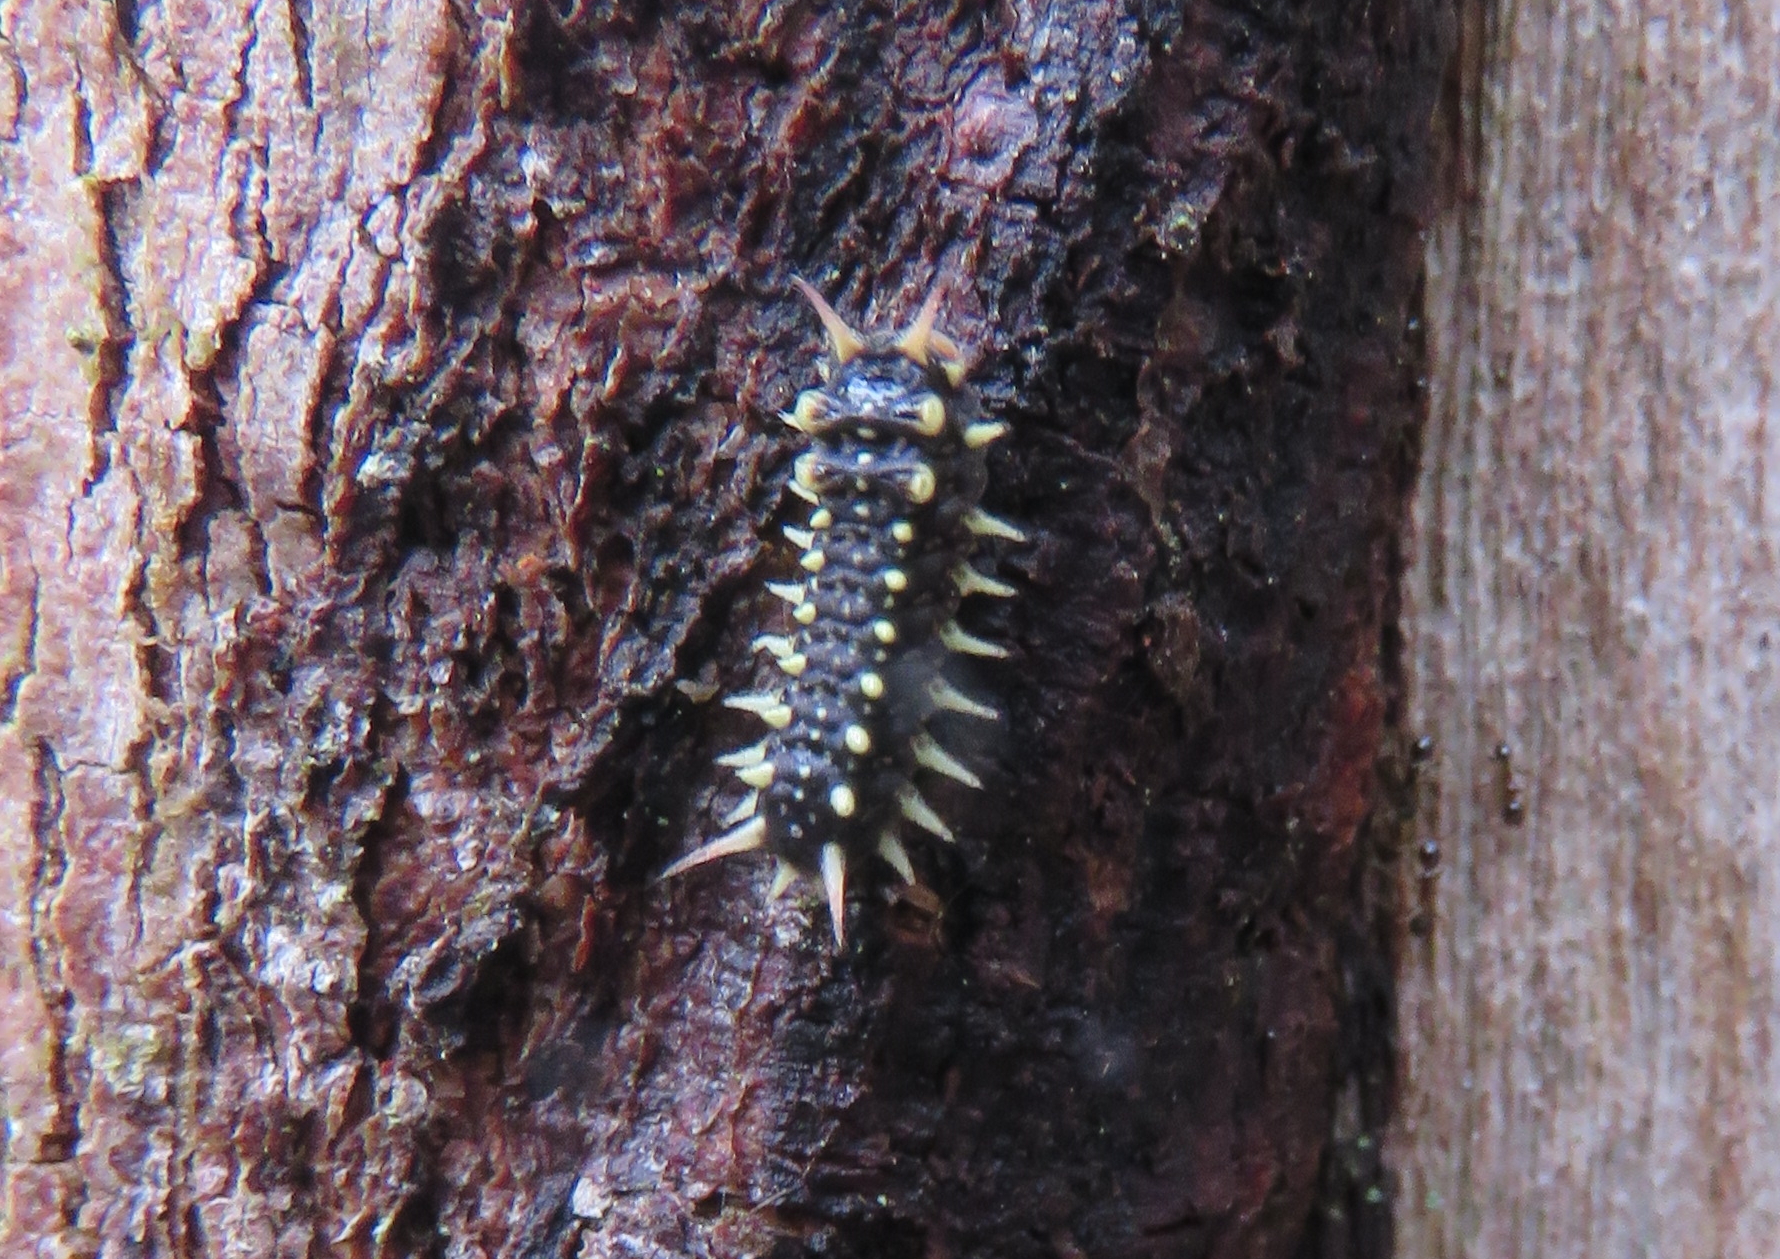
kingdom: Animalia
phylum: Arthropoda
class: Insecta
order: Lepidoptera
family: Limacodidae
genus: Doratifera
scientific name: Doratifera casta
